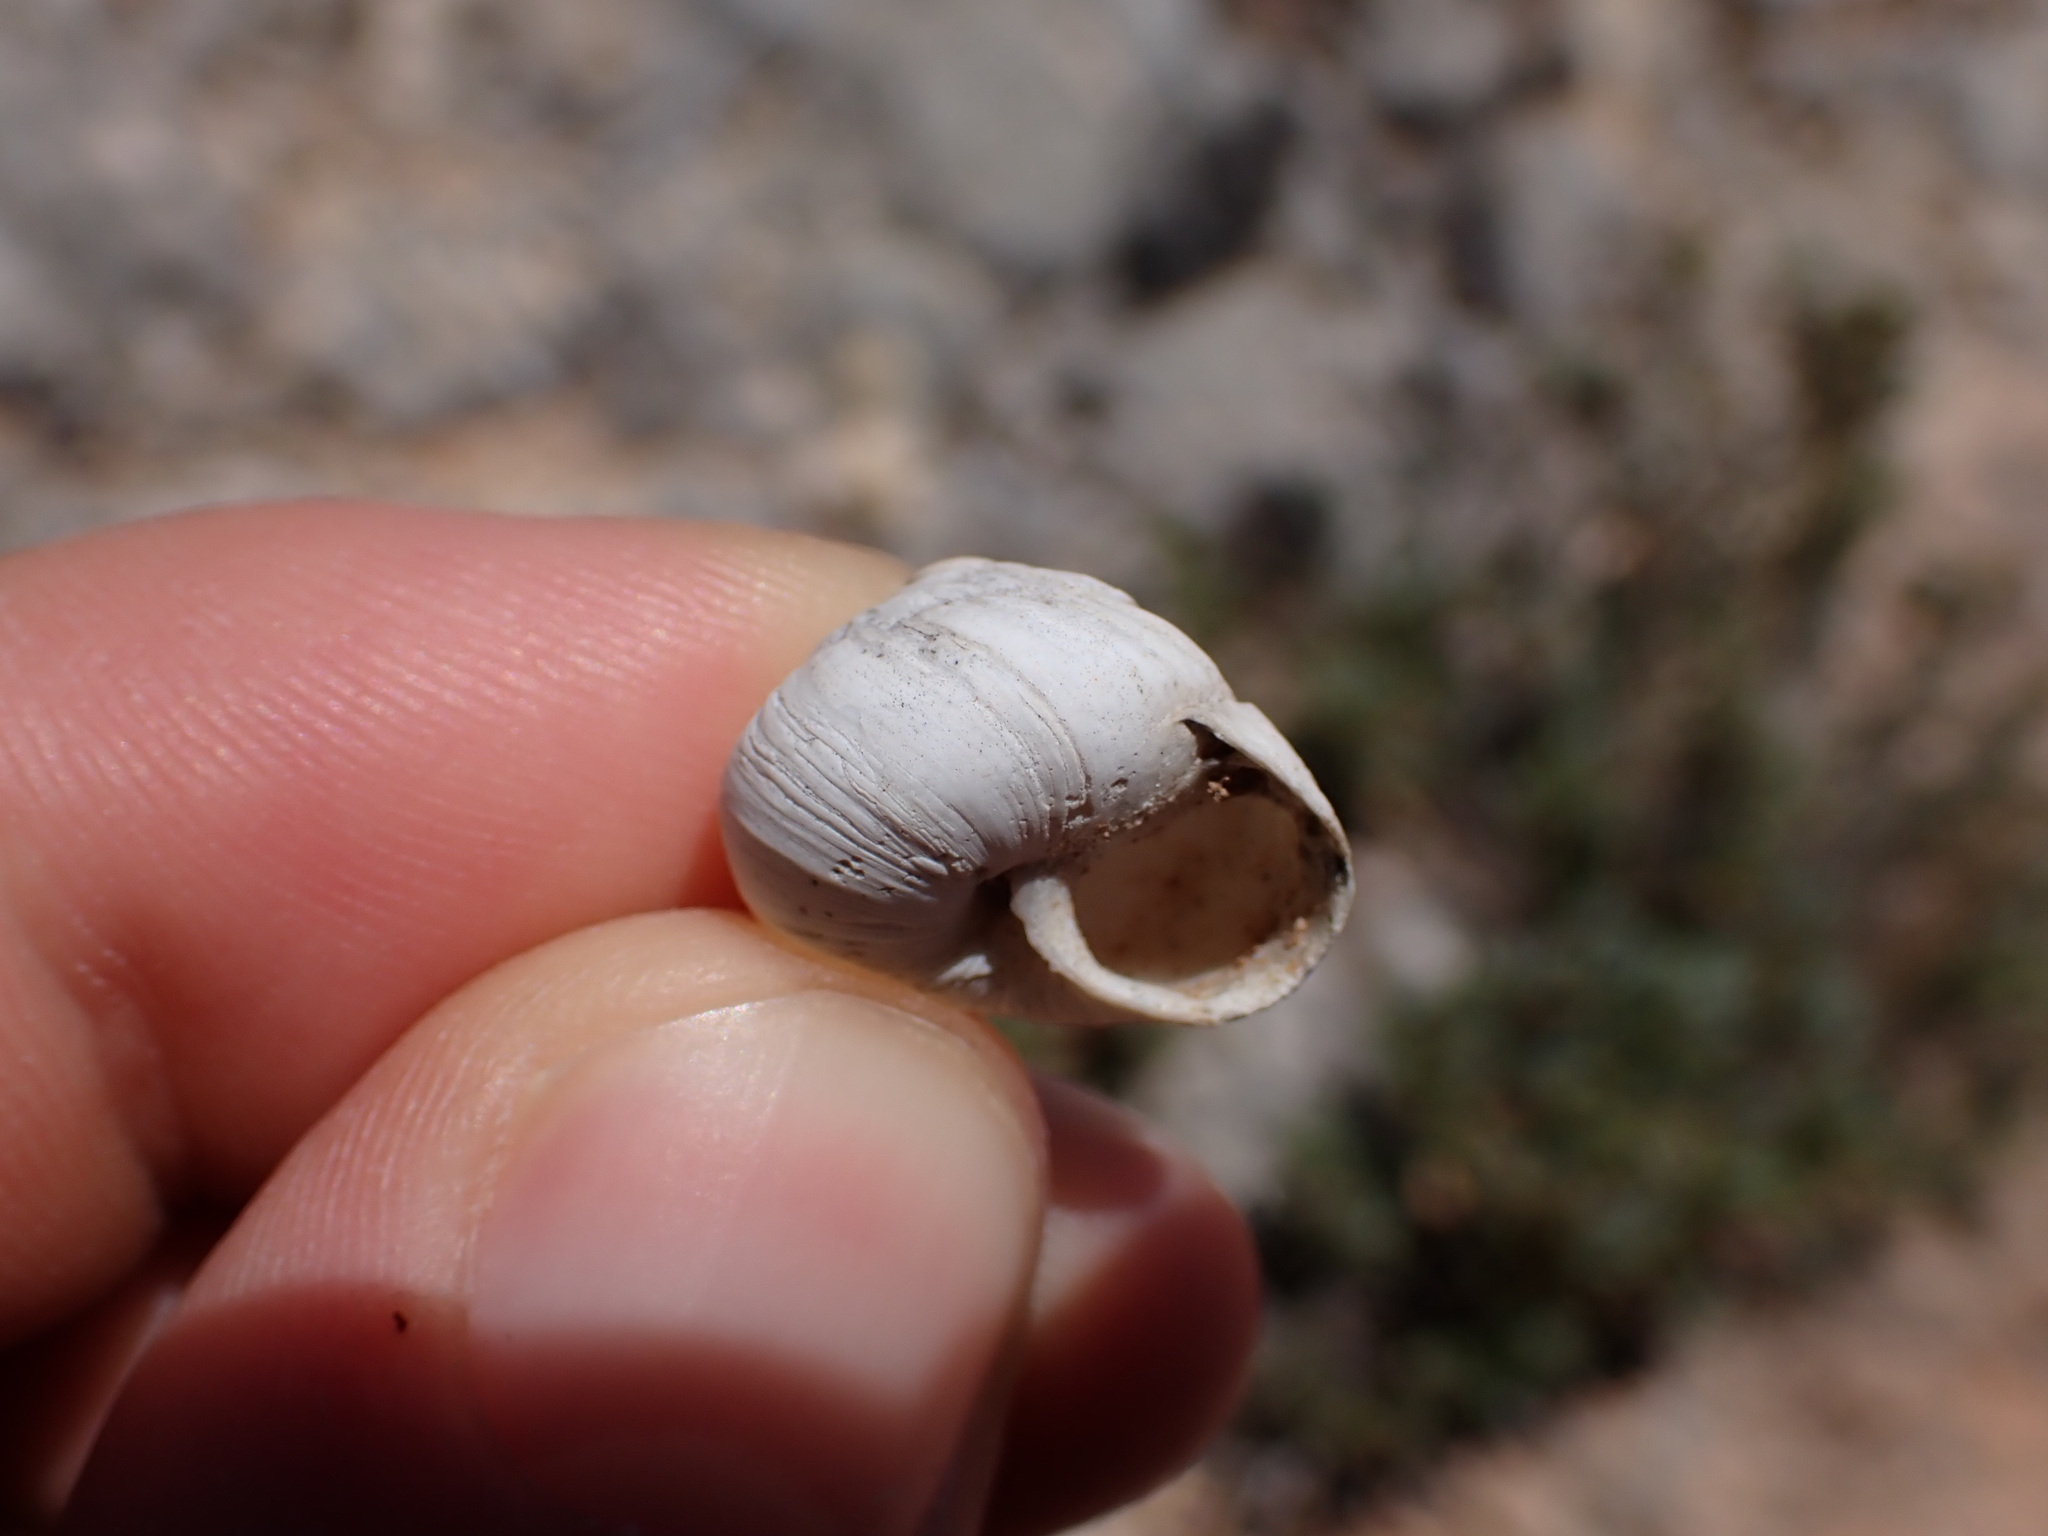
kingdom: Animalia
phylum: Mollusca
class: Gastropoda
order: Stylommatophora
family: Sphincterochilidae
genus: Sphincterochila
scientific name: Sphincterochila candidissima
